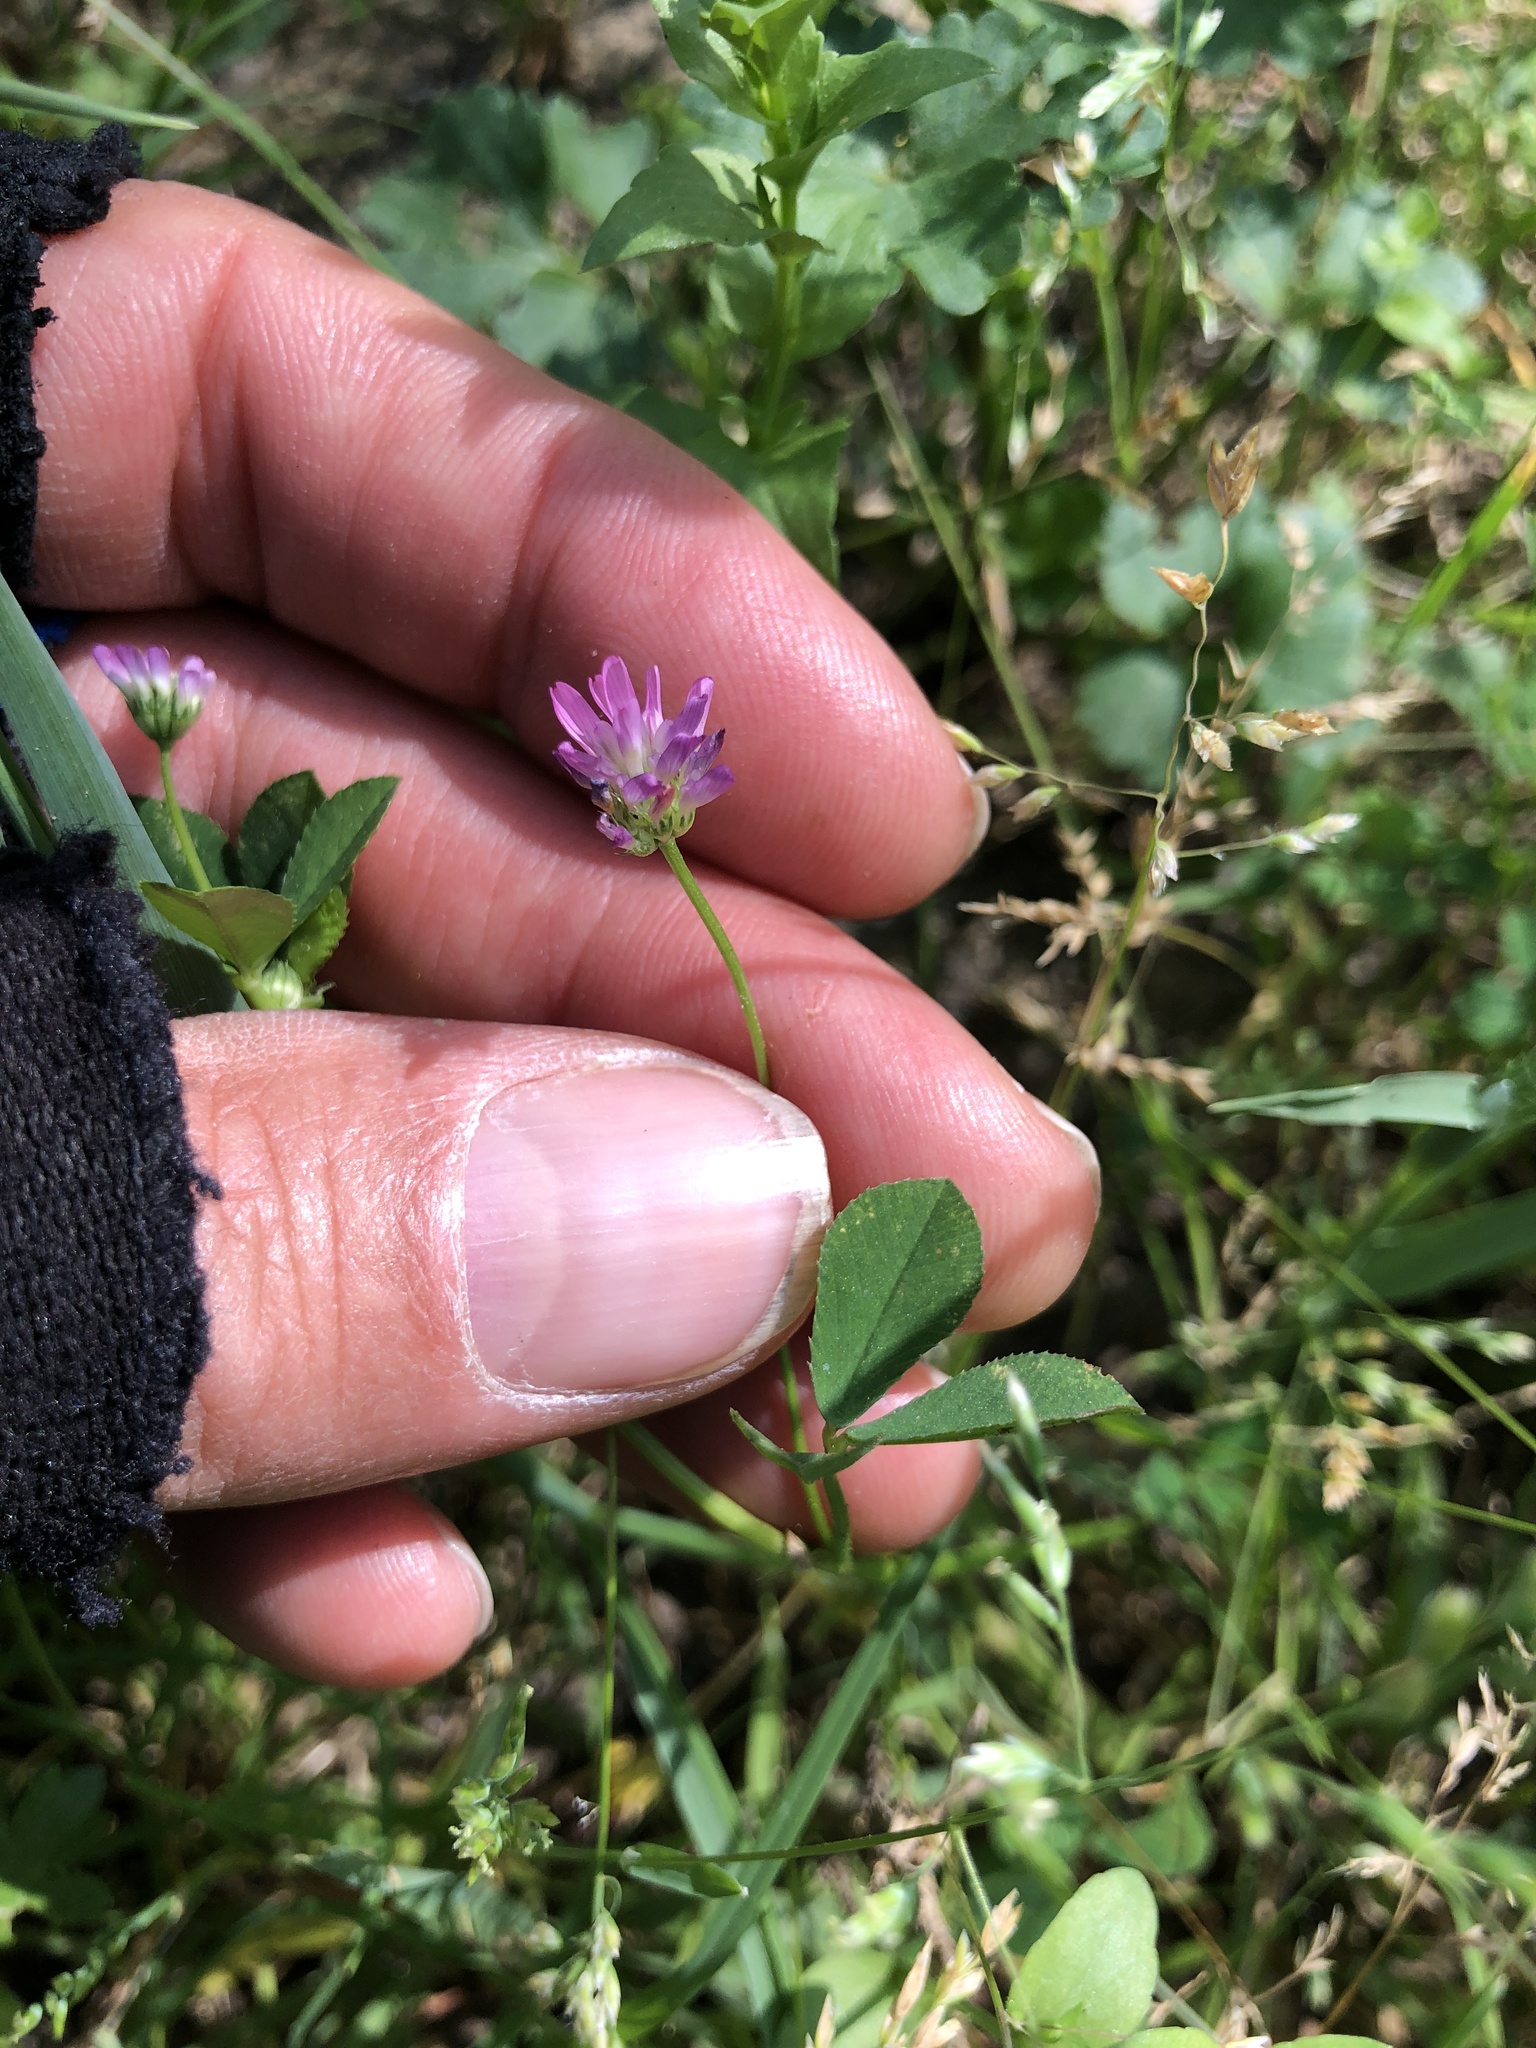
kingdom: Plantae
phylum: Tracheophyta
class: Magnoliopsida
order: Fabales
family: Fabaceae
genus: Trifolium
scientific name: Trifolium resupinatum
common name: Reversed clover
